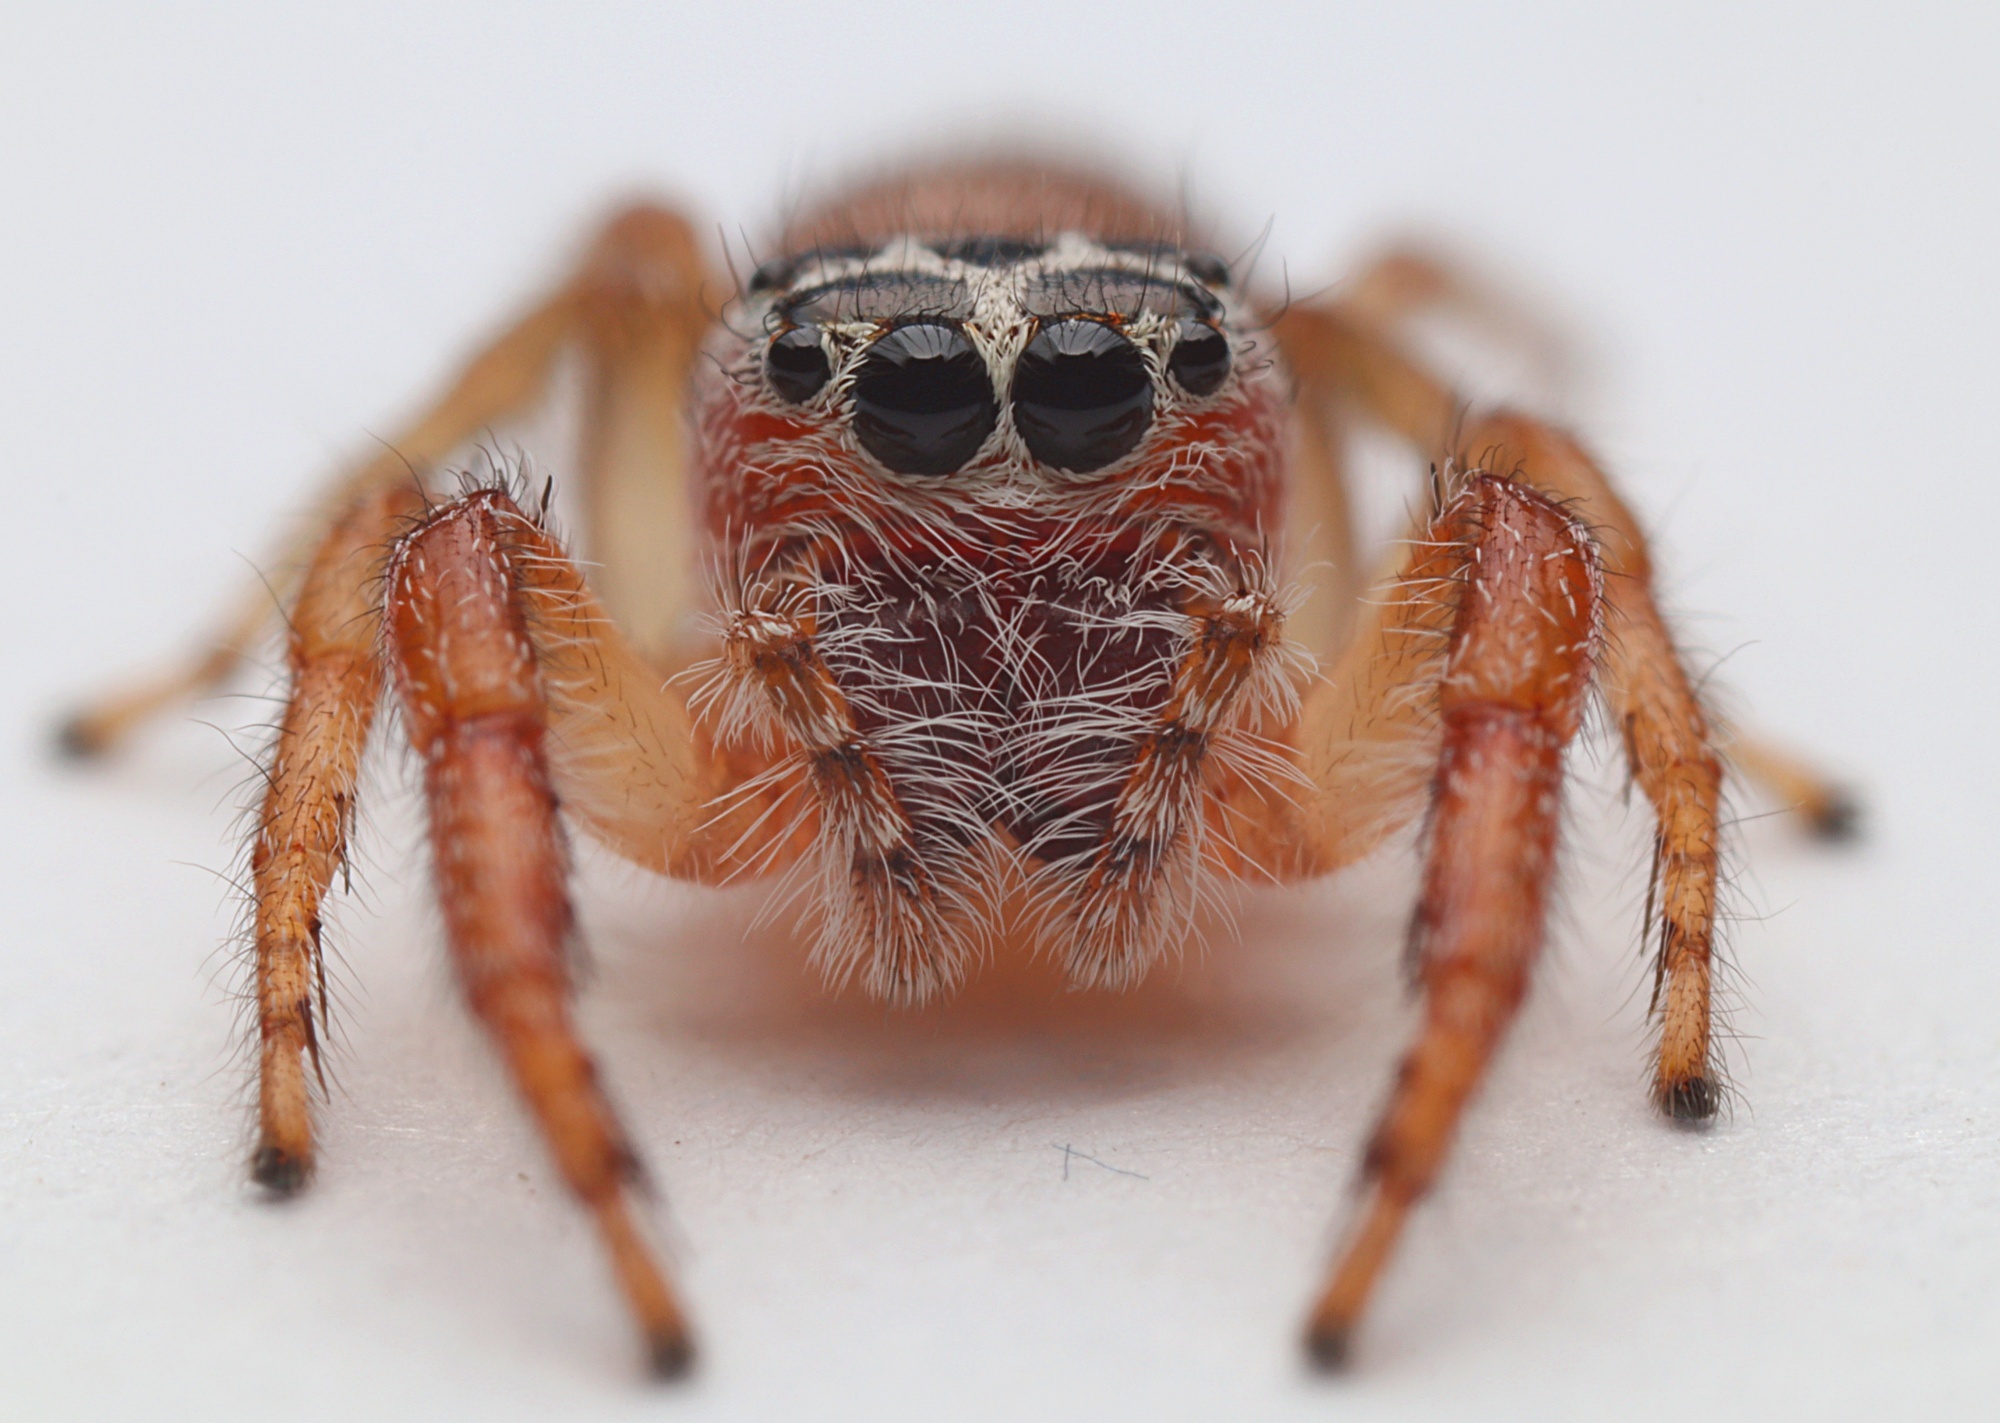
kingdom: Animalia
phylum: Arthropoda
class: Arachnida
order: Araneae
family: Salticidae
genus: Opisthoncus
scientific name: Opisthoncus polyphemus
